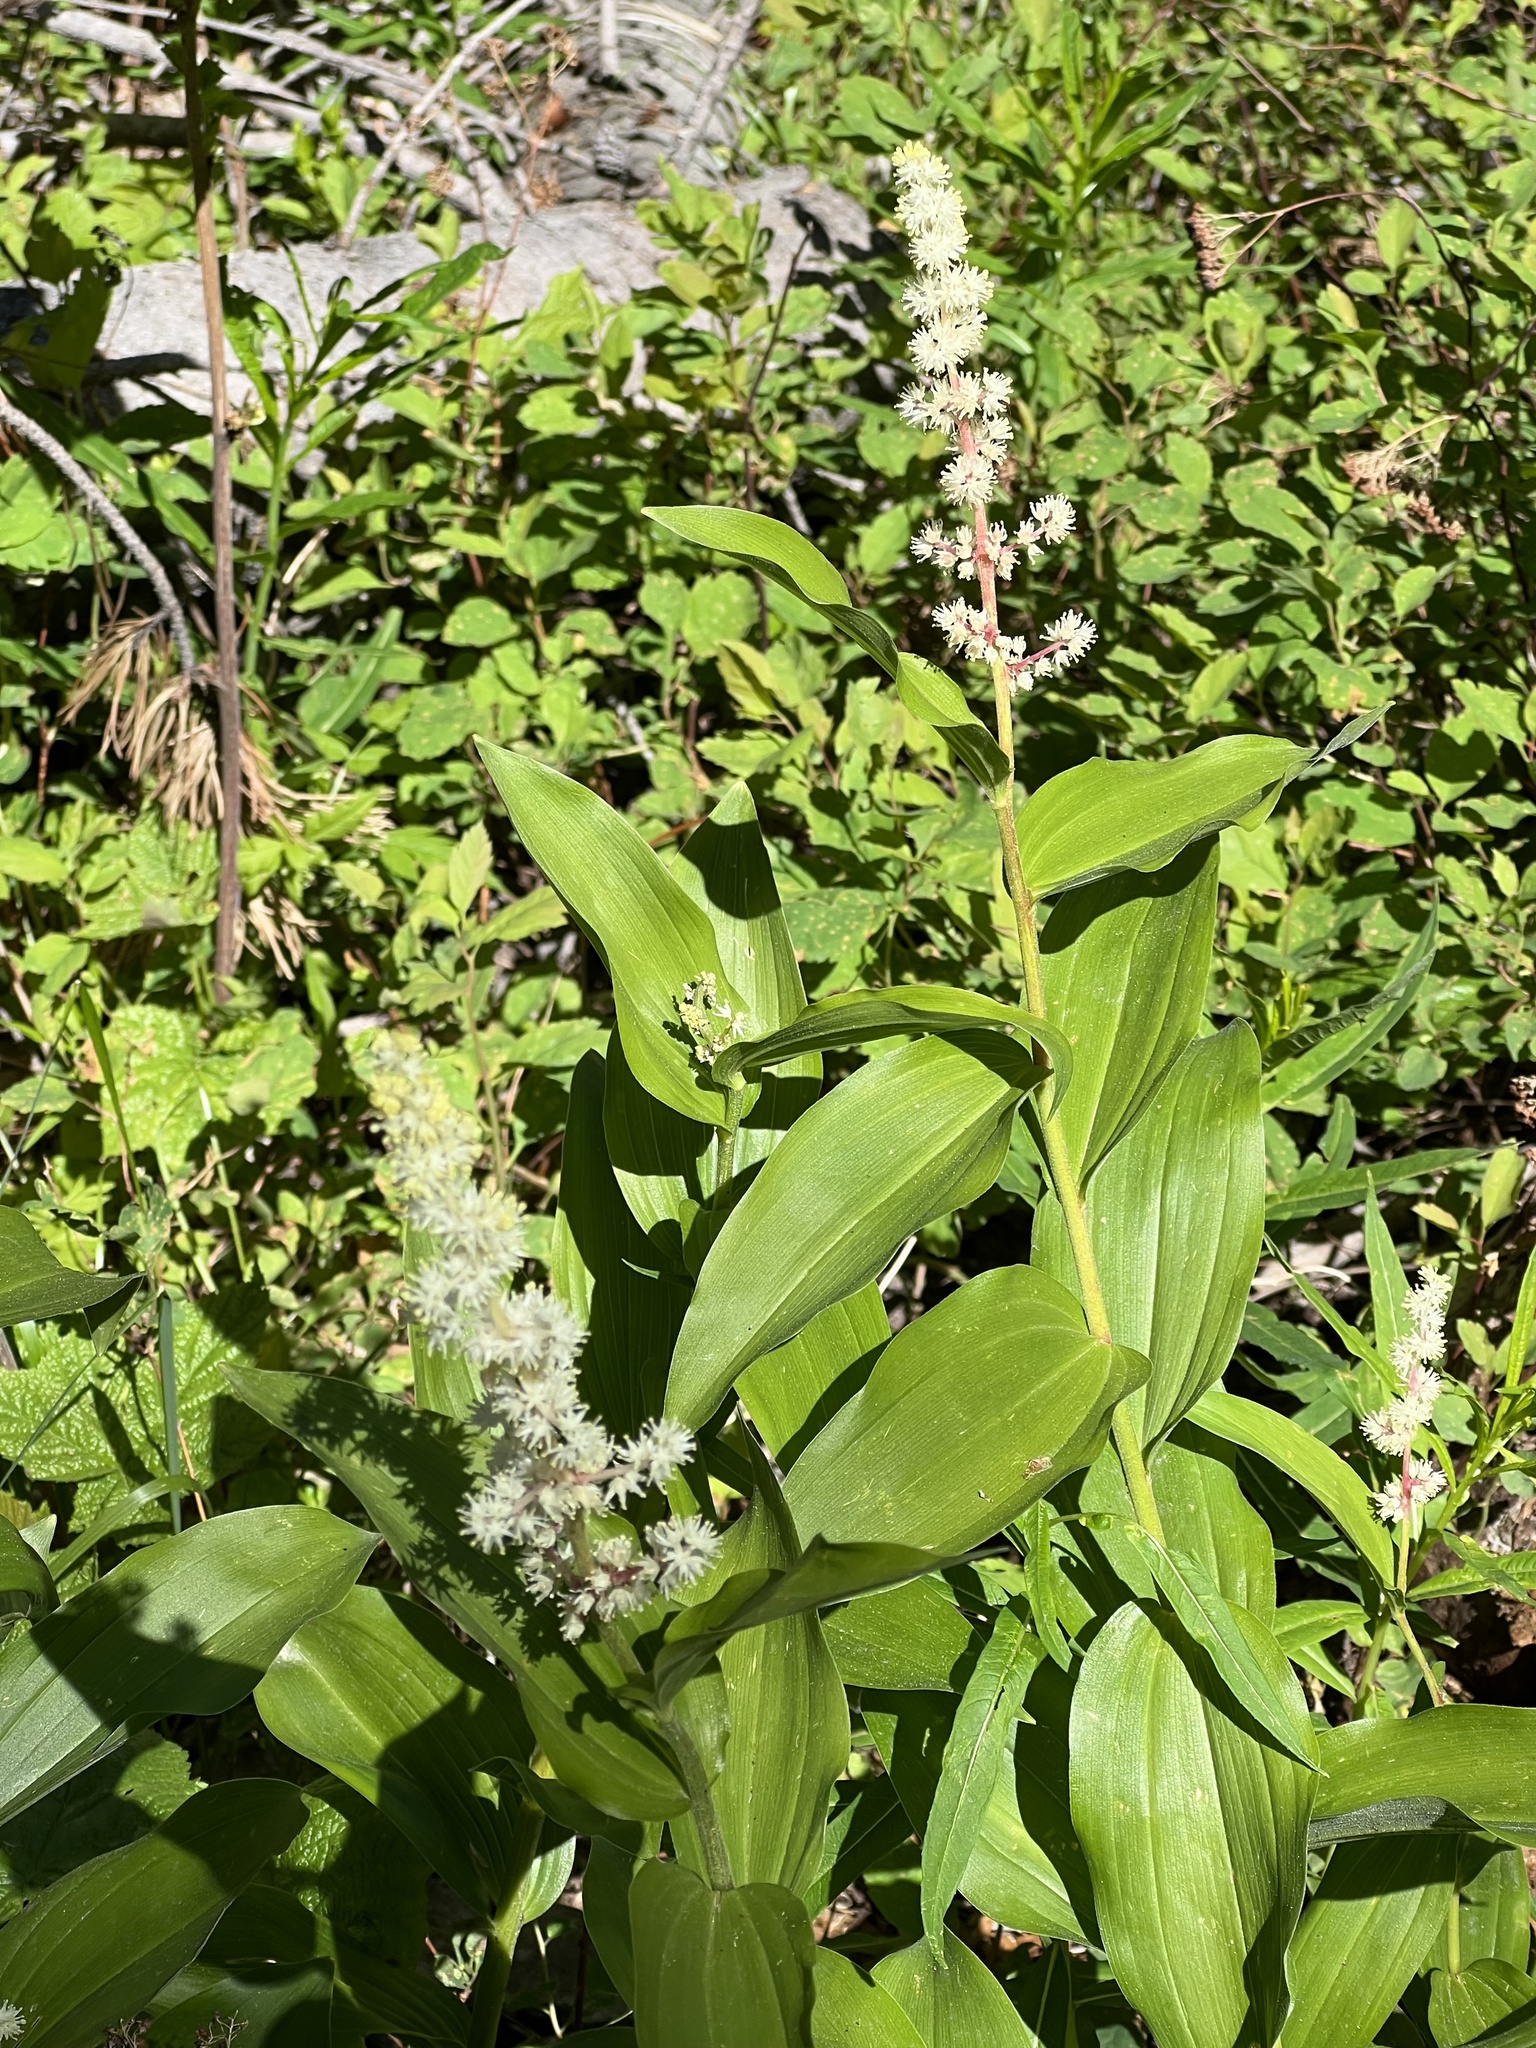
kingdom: Plantae
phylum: Tracheophyta
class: Liliopsida
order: Asparagales
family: Asparagaceae
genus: Maianthemum
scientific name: Maianthemum racemosum
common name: False spikenard
